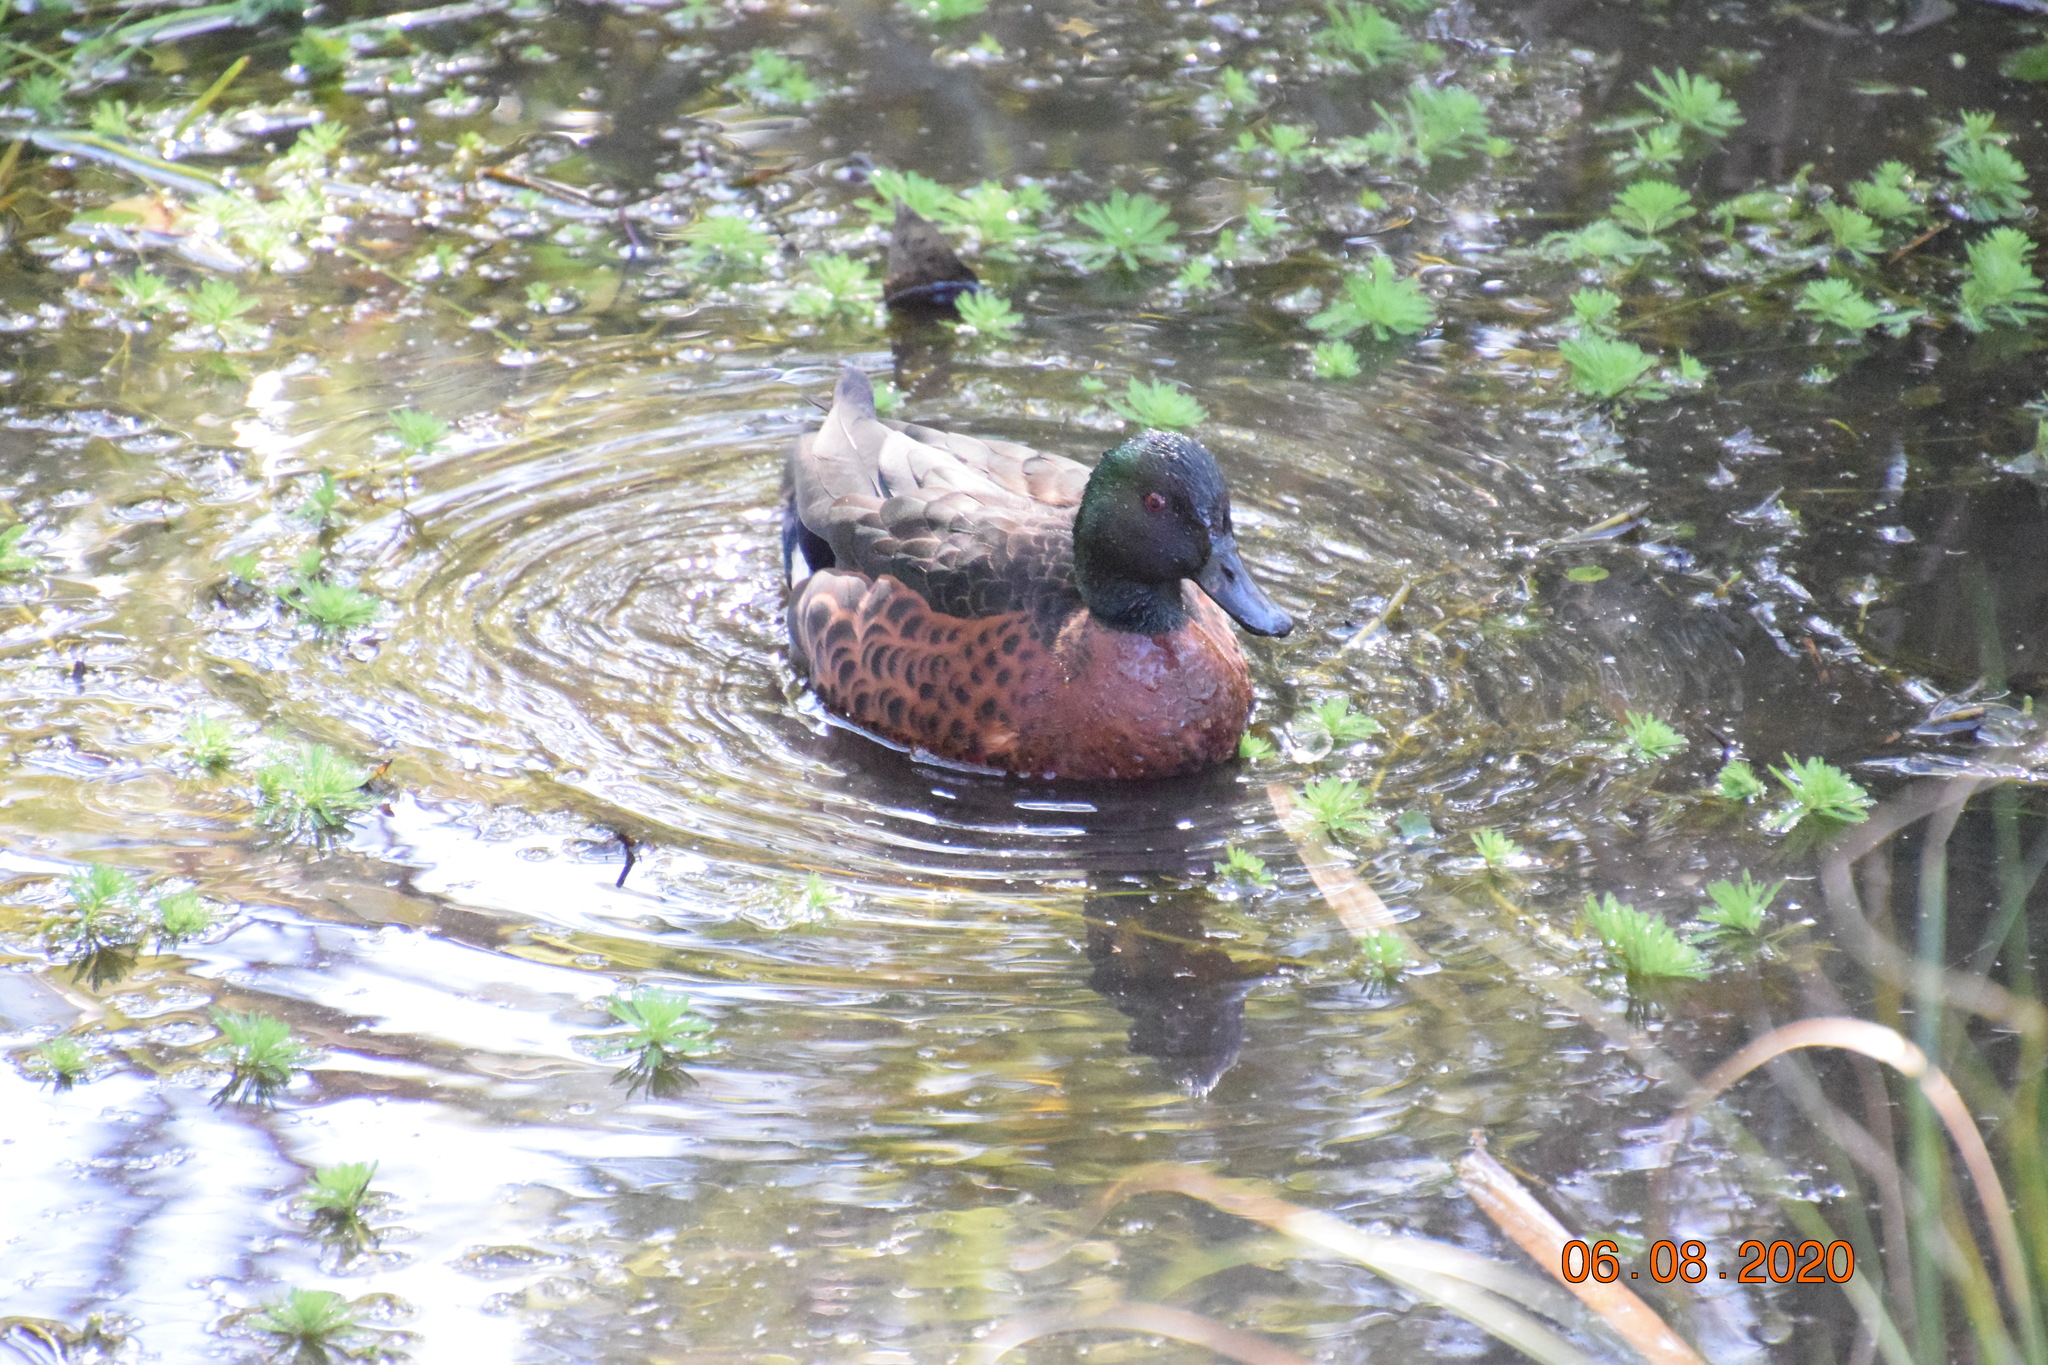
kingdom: Animalia
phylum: Chordata
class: Aves
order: Anseriformes
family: Anatidae
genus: Anas
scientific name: Anas castanea
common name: Chestnut teal
